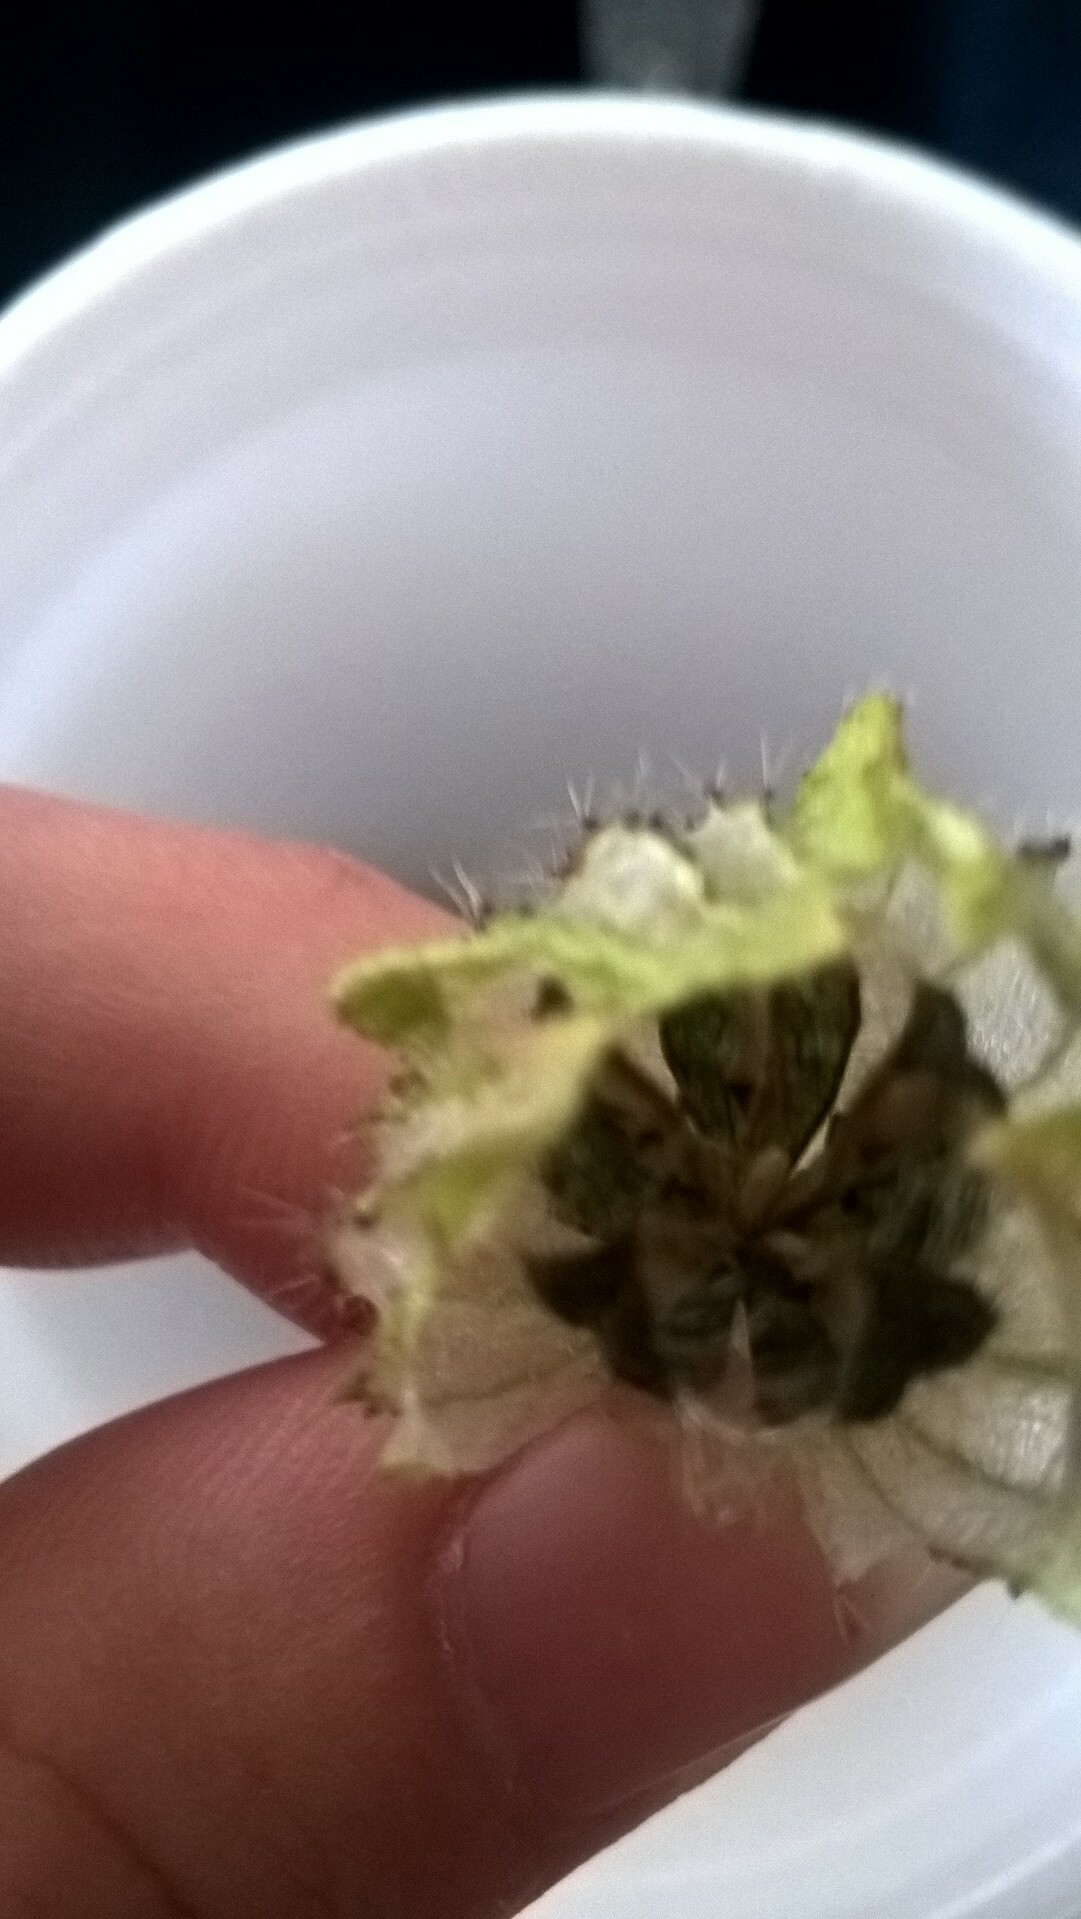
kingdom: Plantae
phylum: Tracheophyta
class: Magnoliopsida
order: Malvales
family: Malvaceae
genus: Hibiscus
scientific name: Hibiscus trionum
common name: Bladder ketmia
